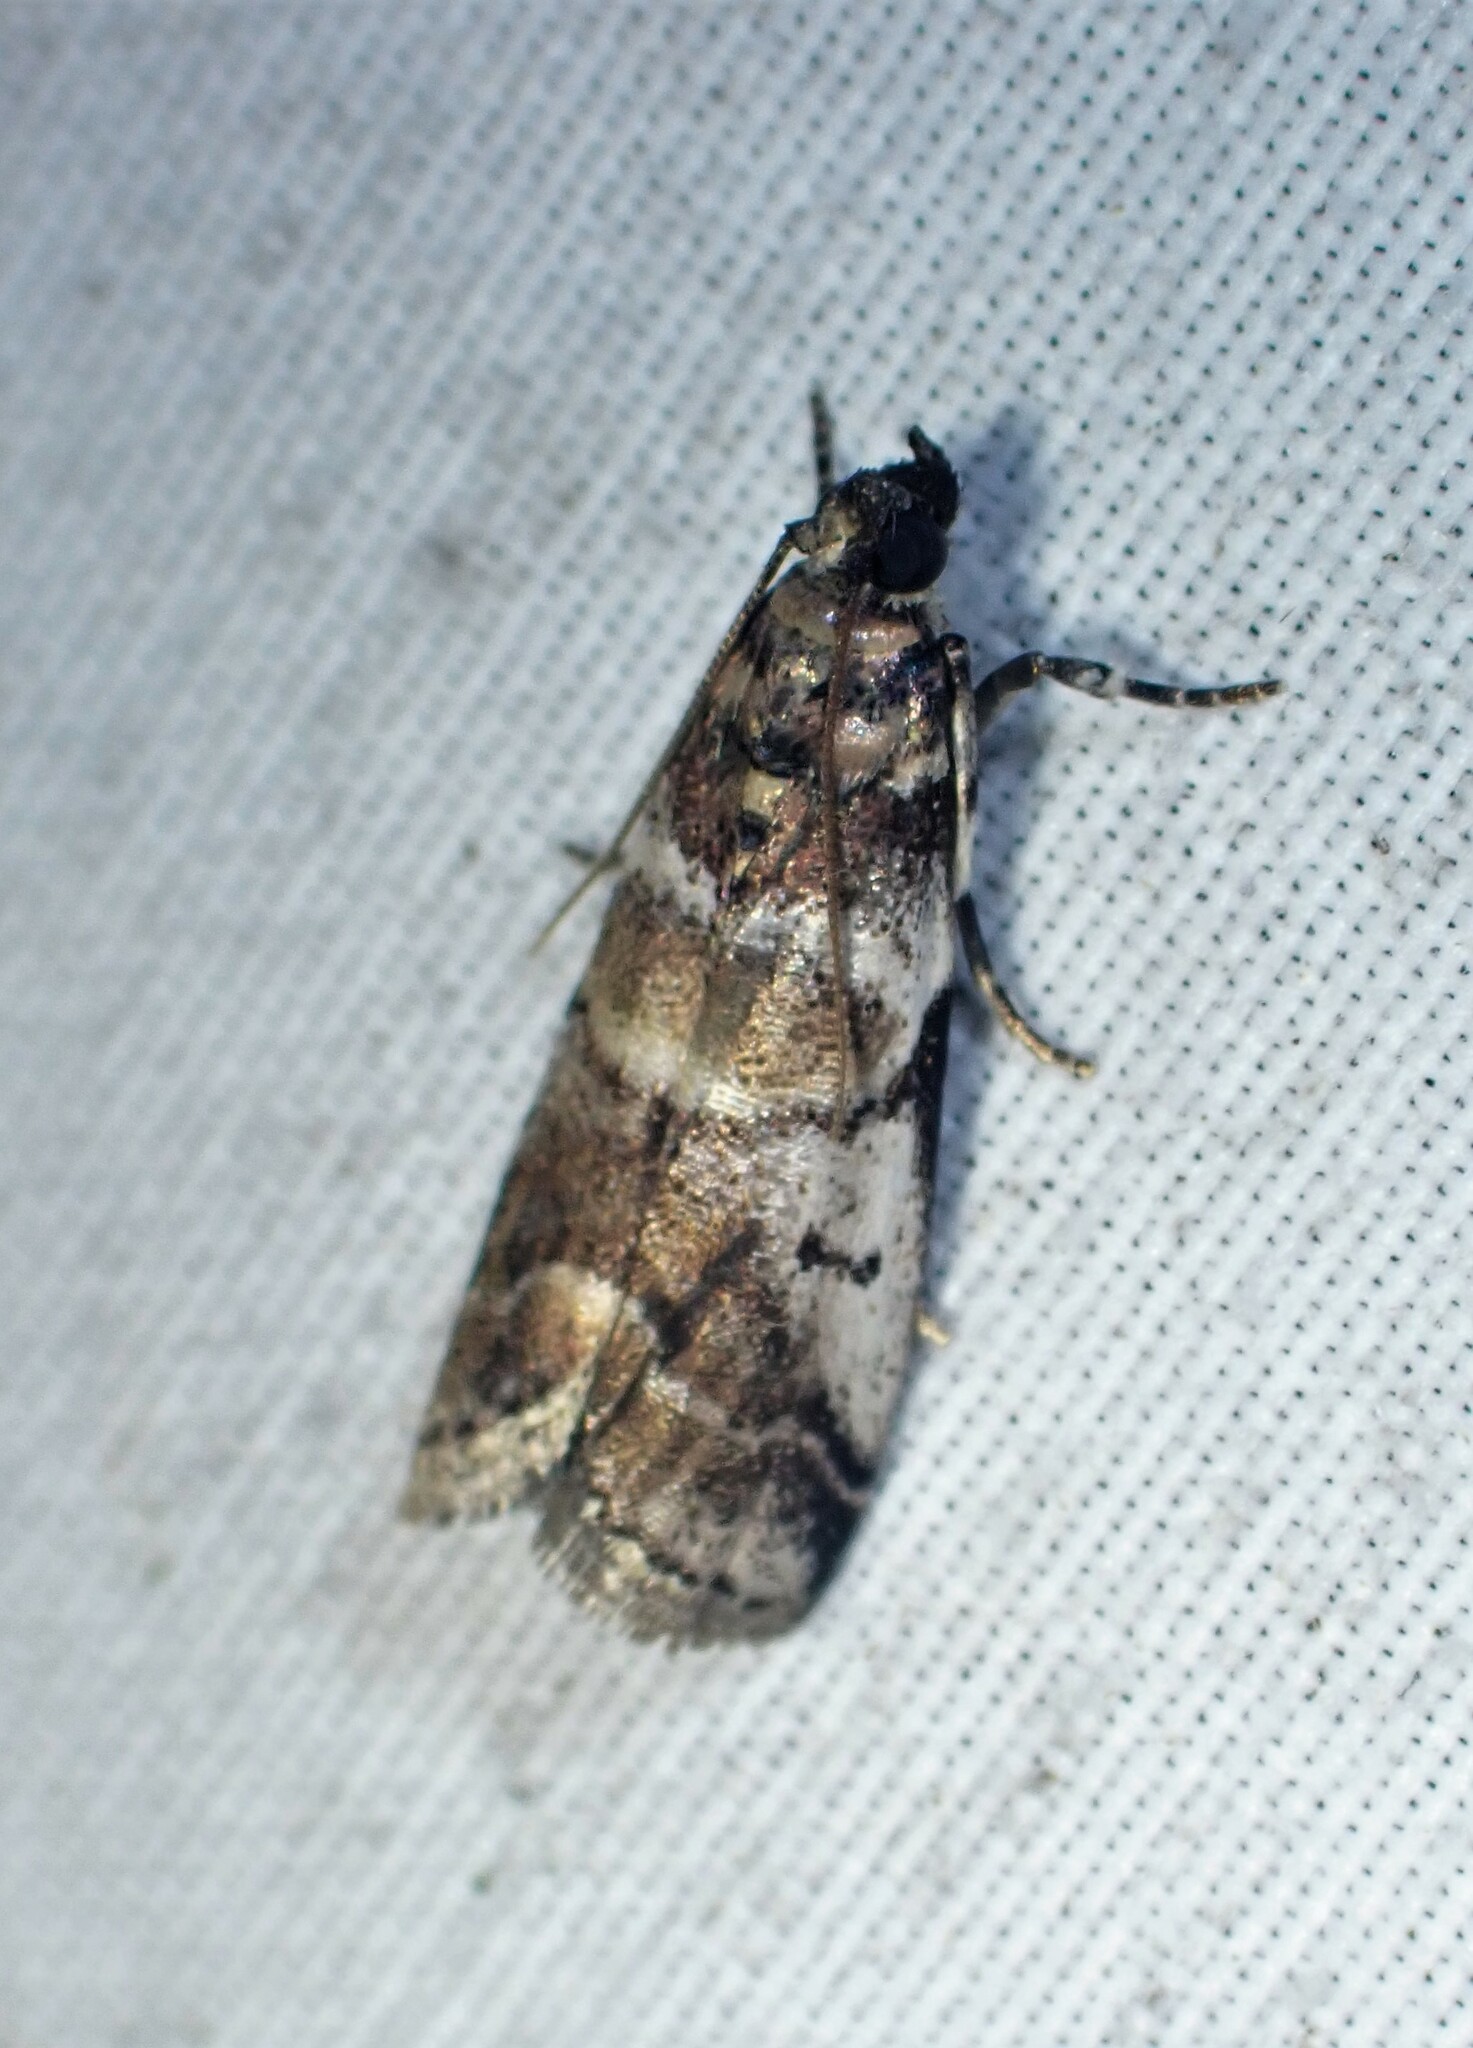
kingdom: Animalia
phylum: Arthropoda
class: Insecta
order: Lepidoptera
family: Pyralidae
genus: Acrobasis
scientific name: Acrobasis indigenella
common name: Leaf crumpler moth
